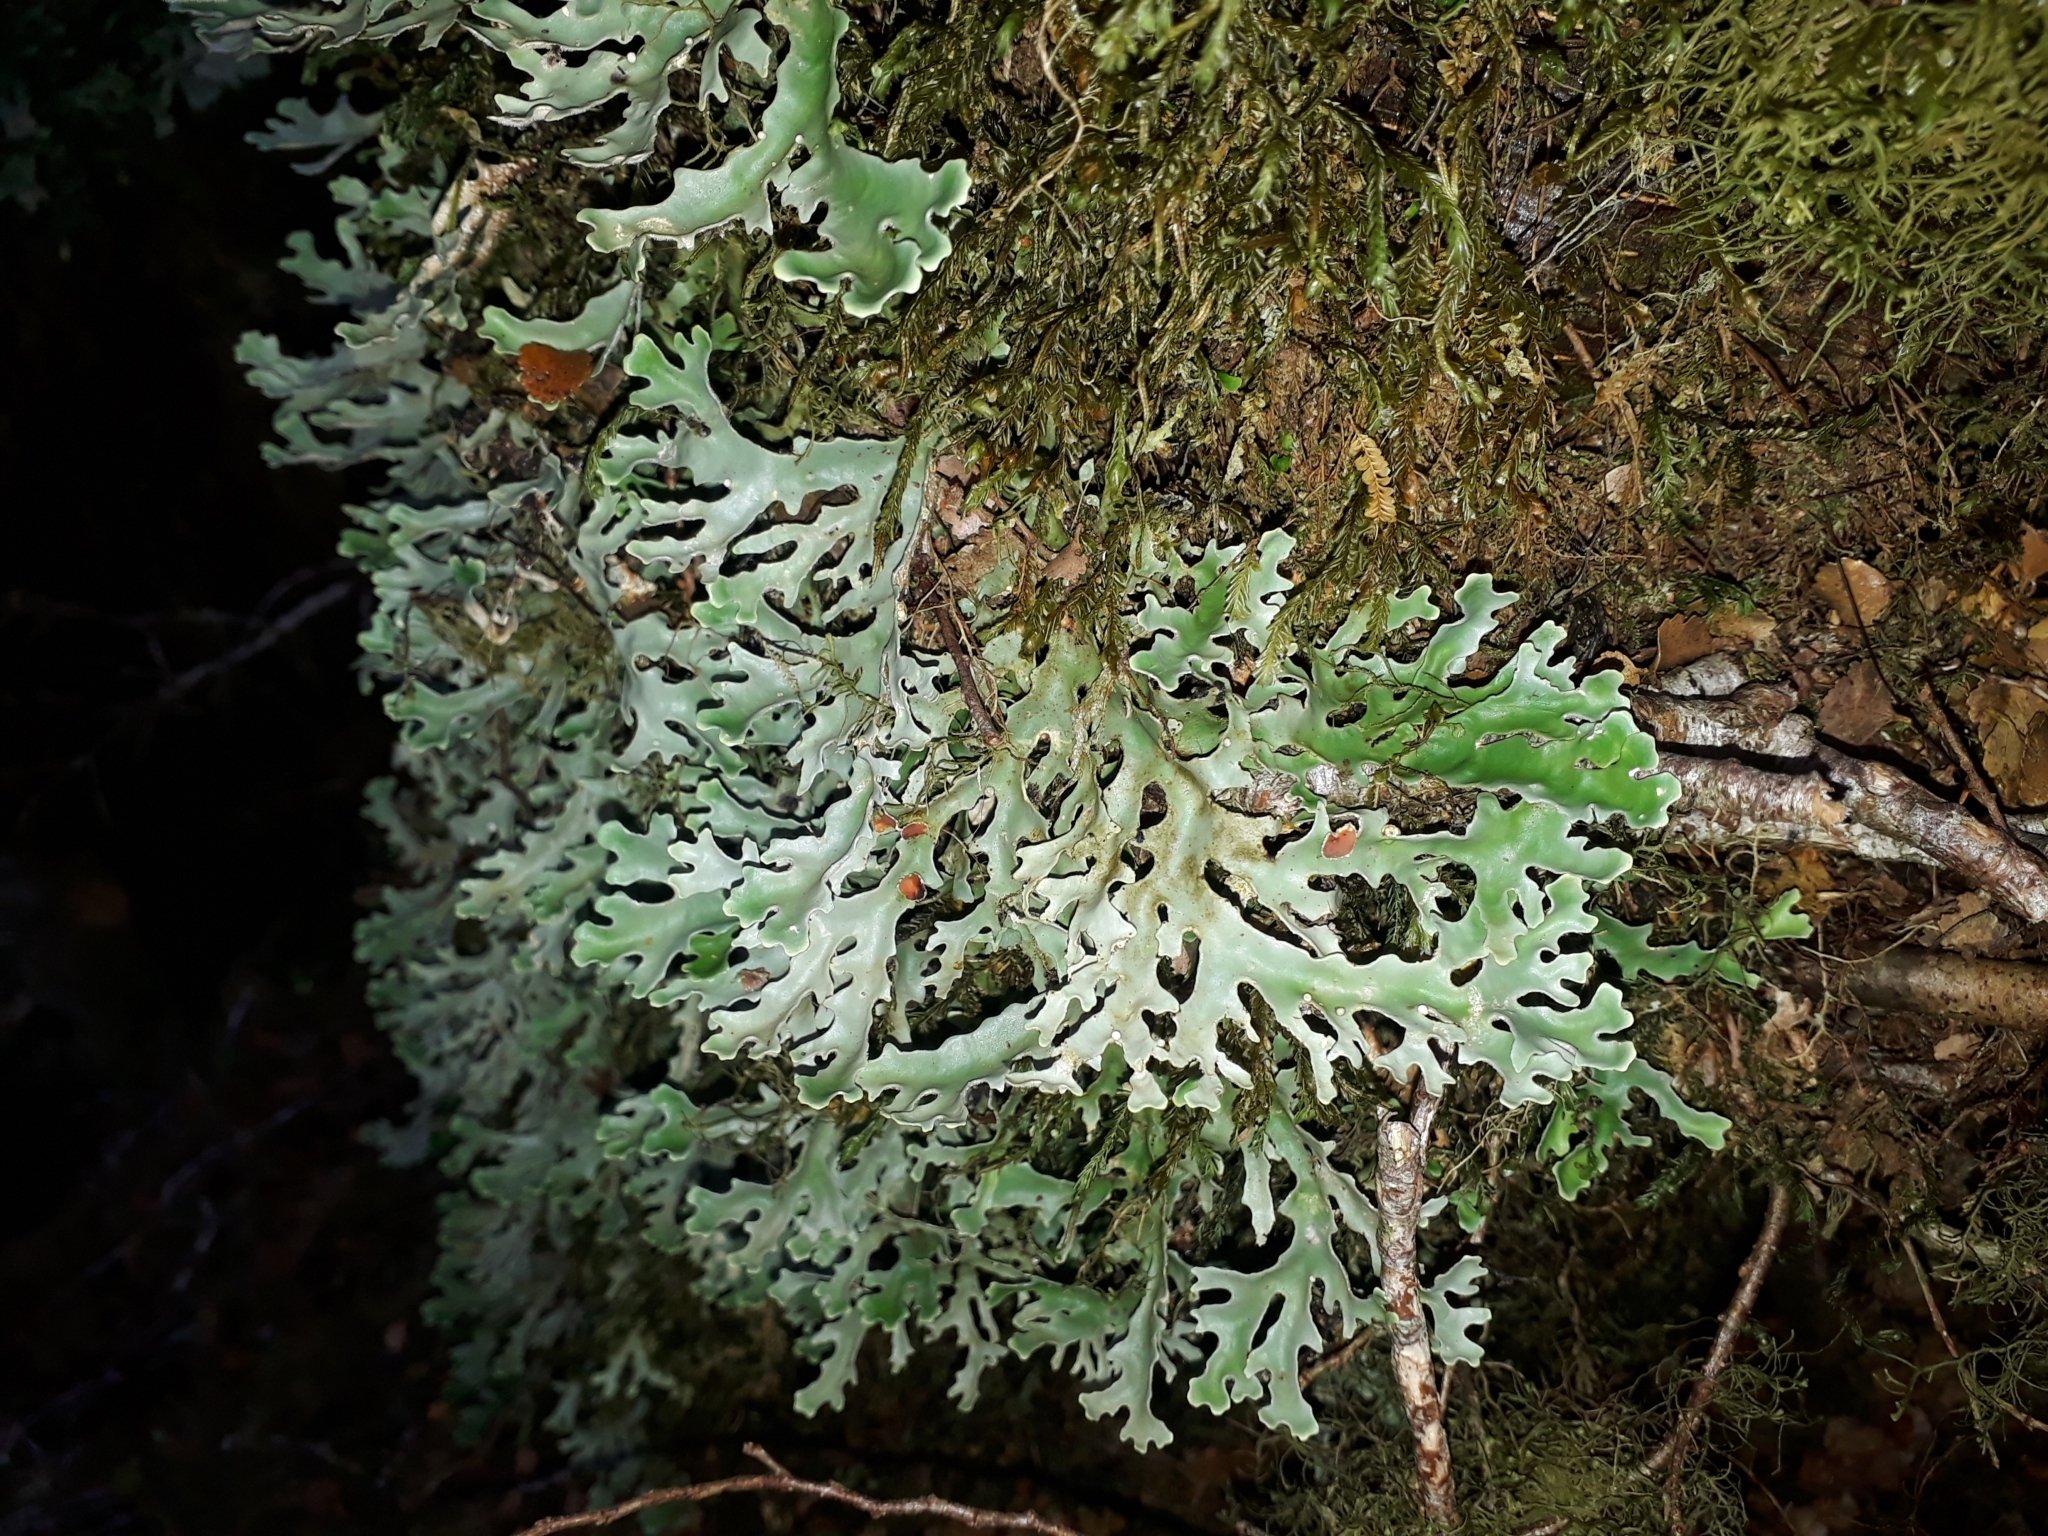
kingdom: Fungi
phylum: Ascomycota
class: Lecanoromycetes
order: Peltigerales
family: Lobariaceae
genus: Pseudocyphellaria
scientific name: Pseudocyphellaria homeophylla
